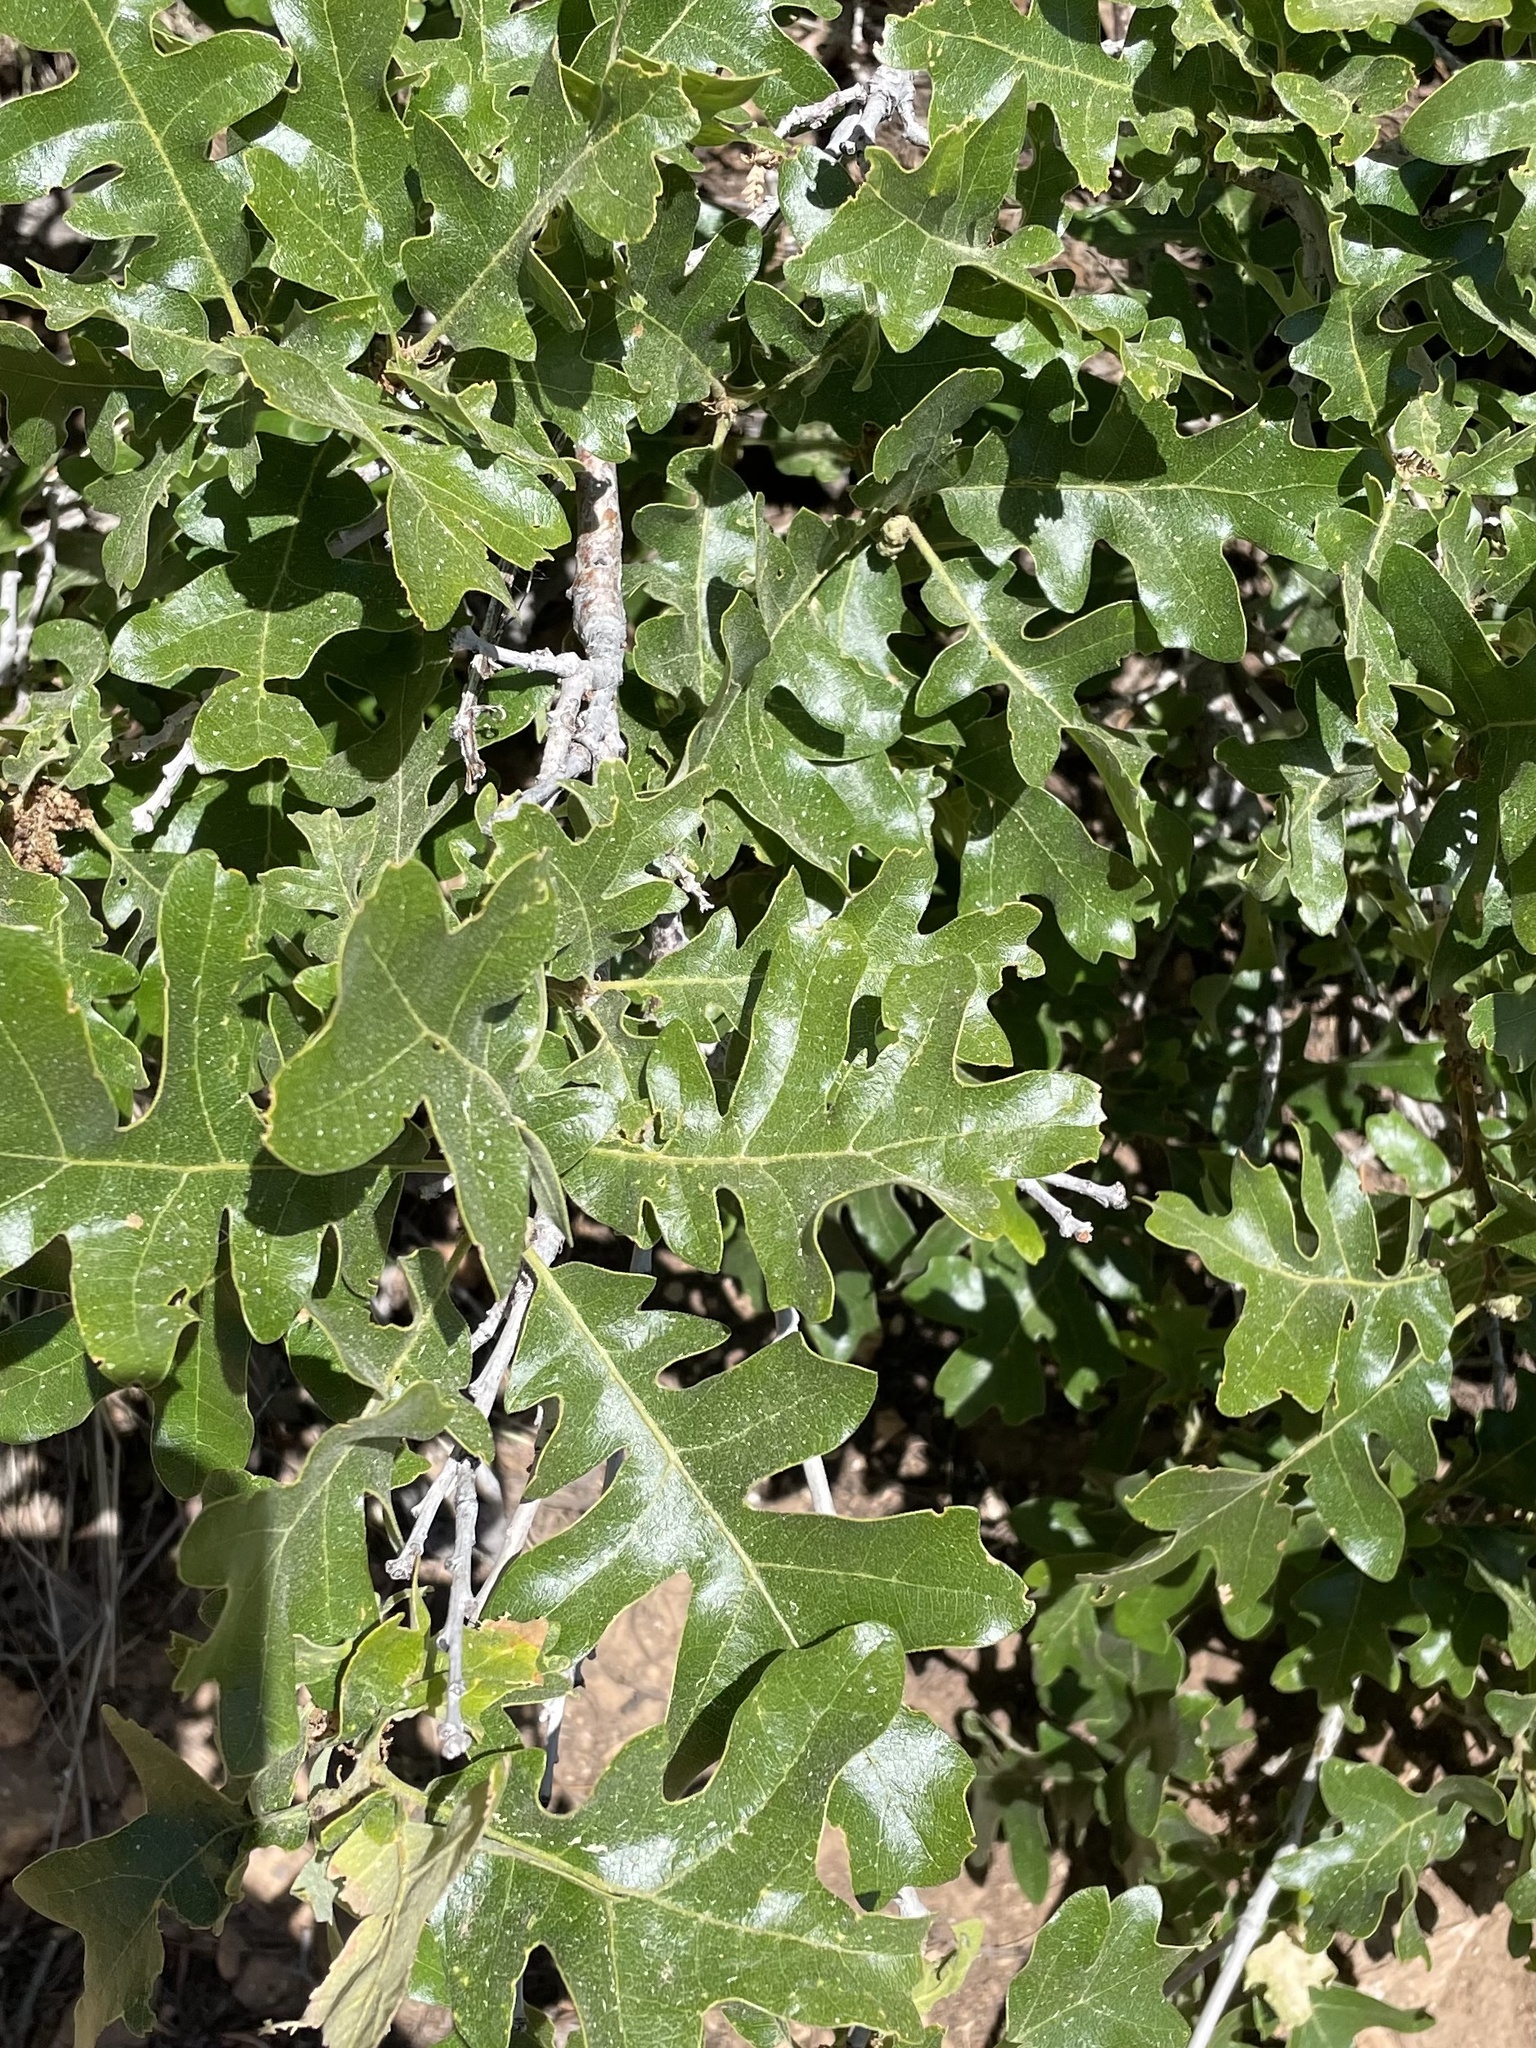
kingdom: Plantae
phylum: Tracheophyta
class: Magnoliopsida
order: Fagales
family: Fagaceae
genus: Quercus
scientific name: Quercus gambelii
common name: Gambel oak
